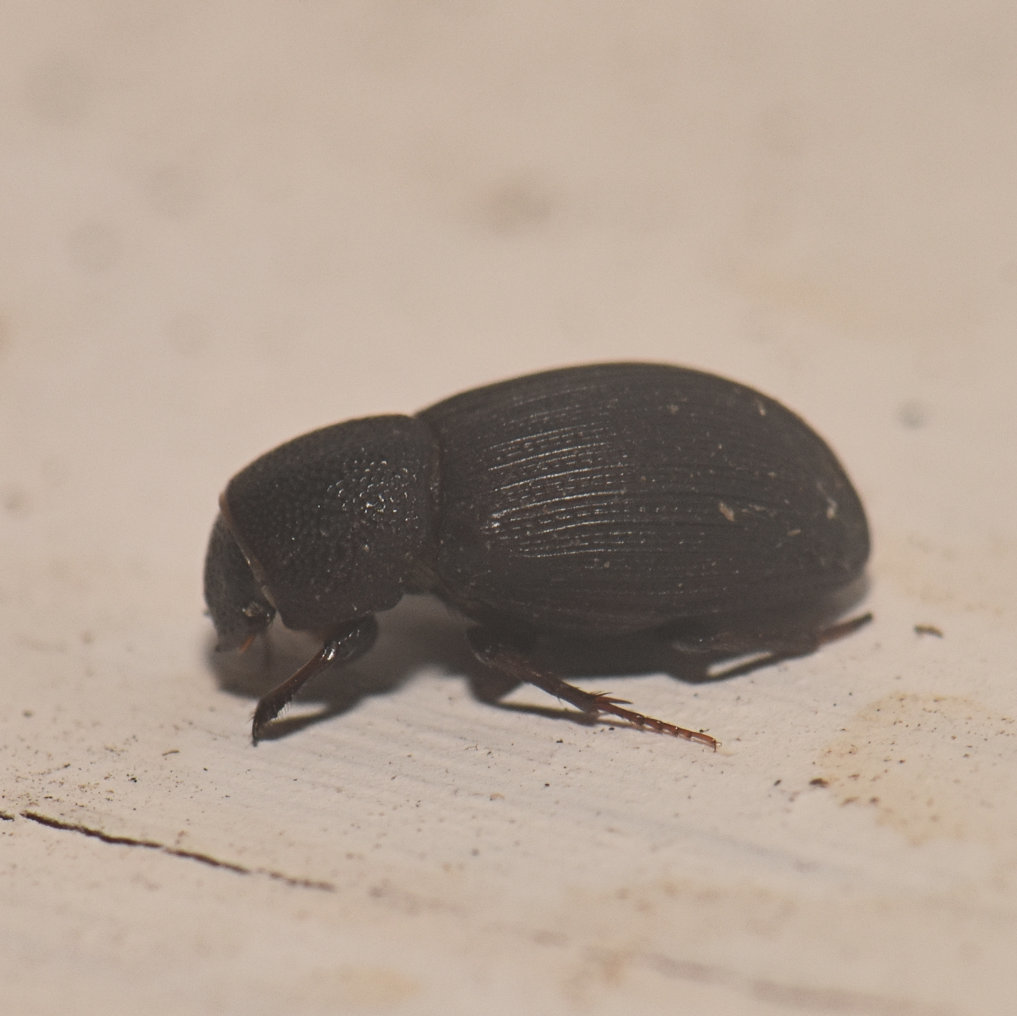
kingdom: Animalia
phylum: Arthropoda
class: Insecta
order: Coleoptera
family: Scarabaeidae
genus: Dialytes
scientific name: Dialytes ulkei
